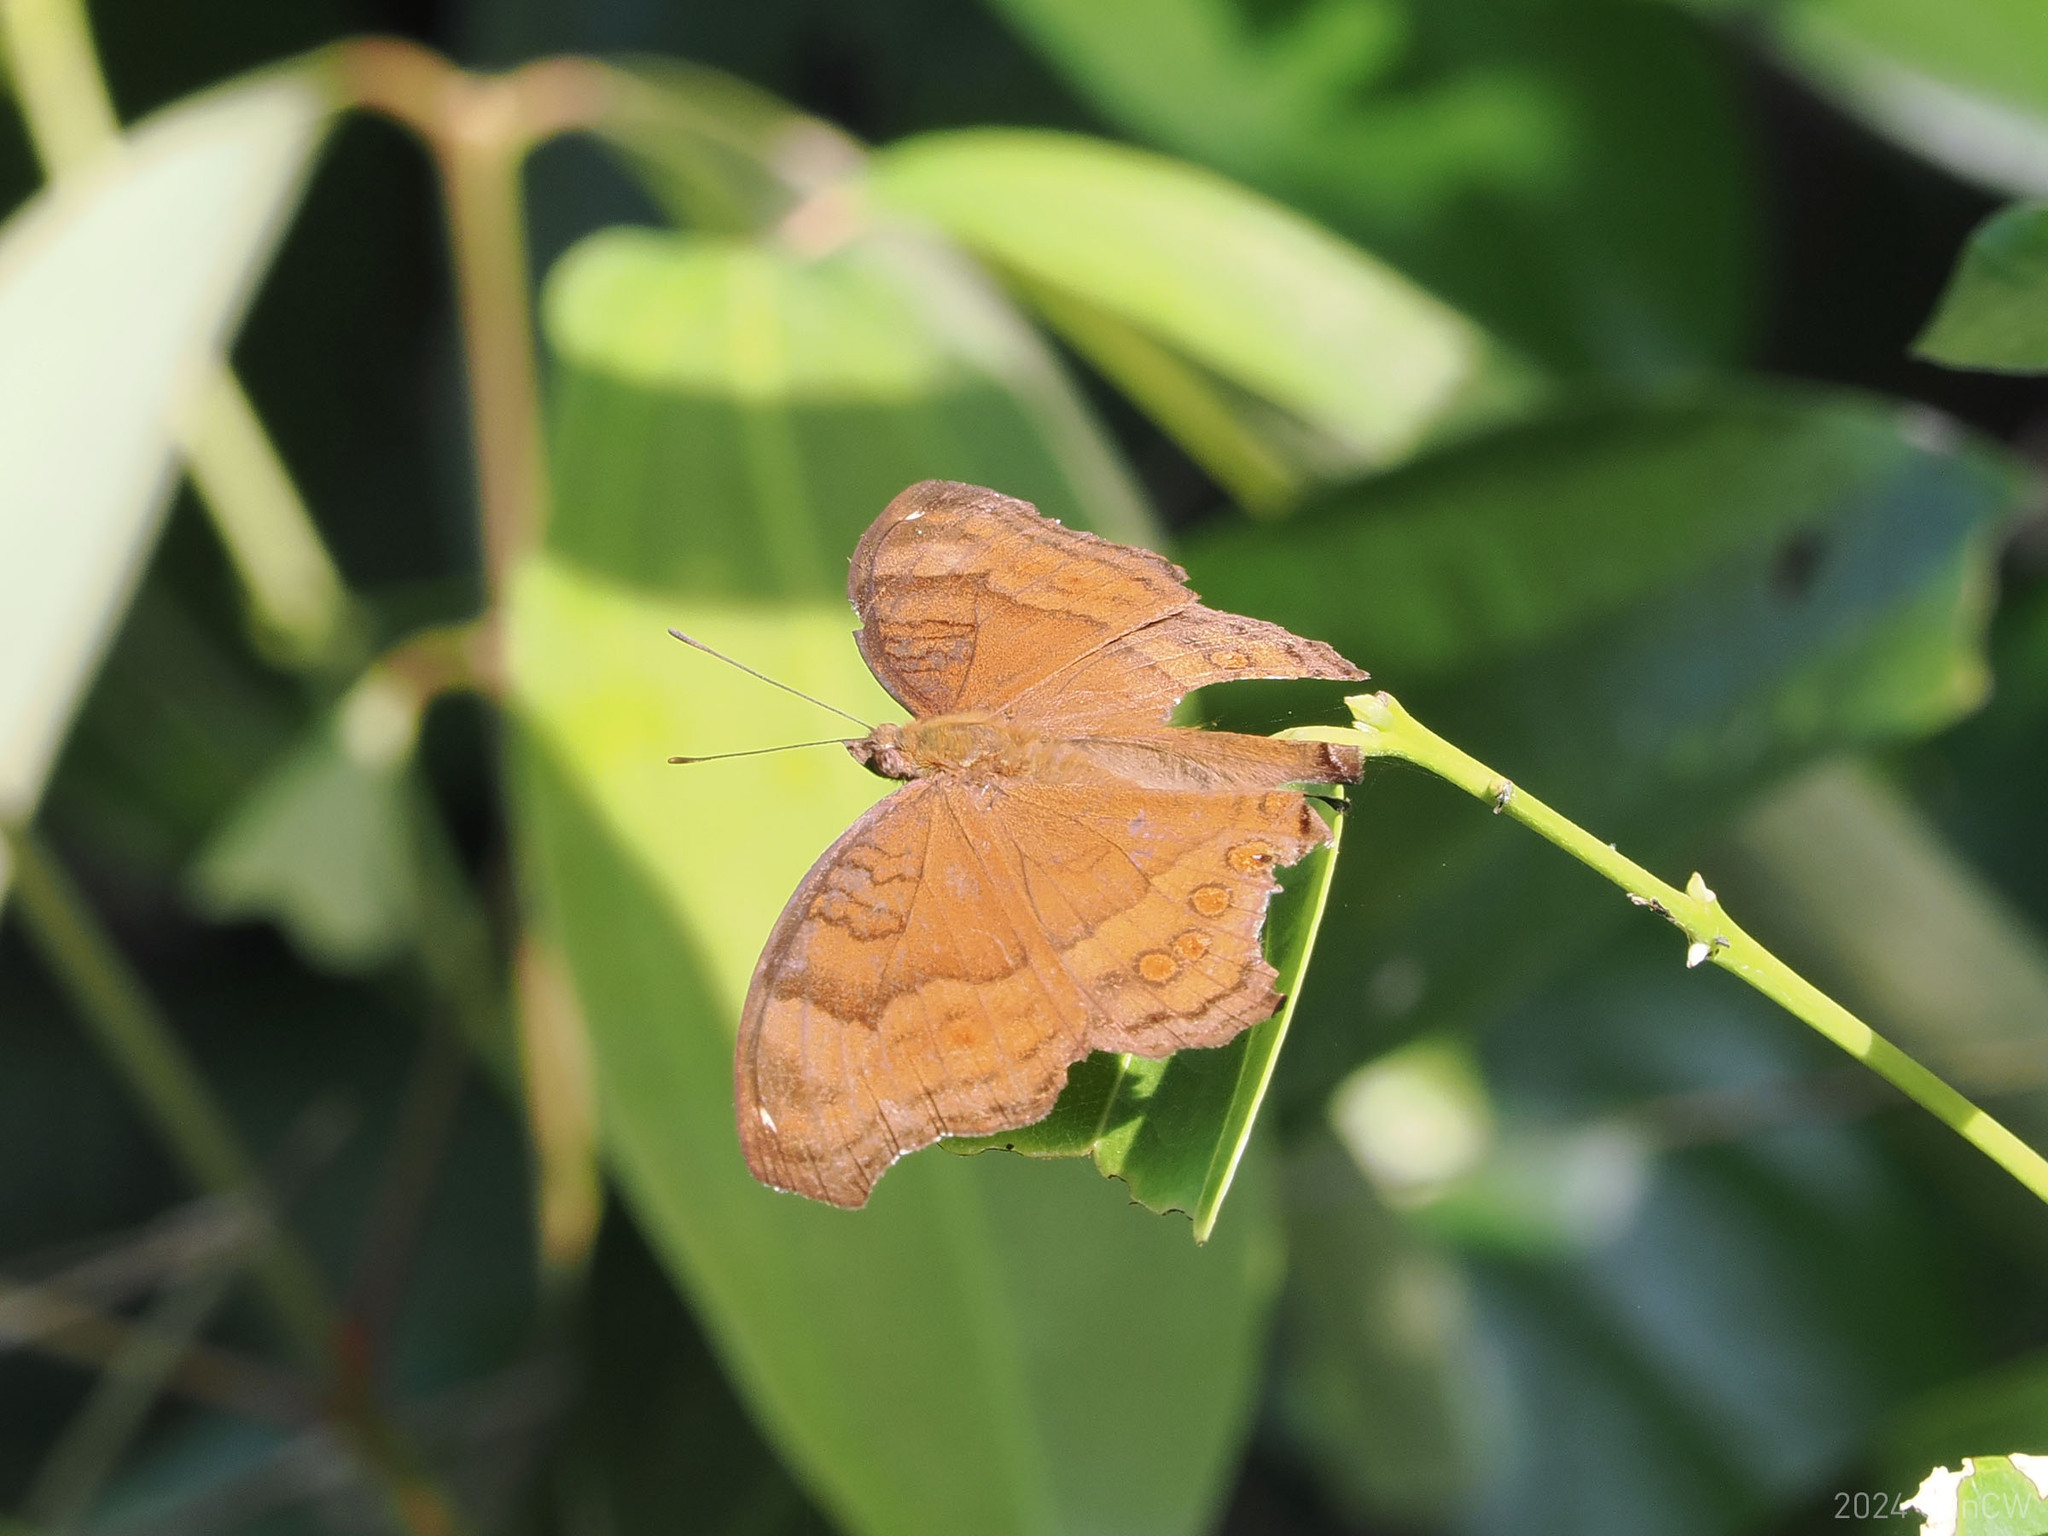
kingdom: Animalia
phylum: Arthropoda
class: Insecta
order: Lepidoptera
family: Nymphalidae
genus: Junonia
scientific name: Junonia hedonia
